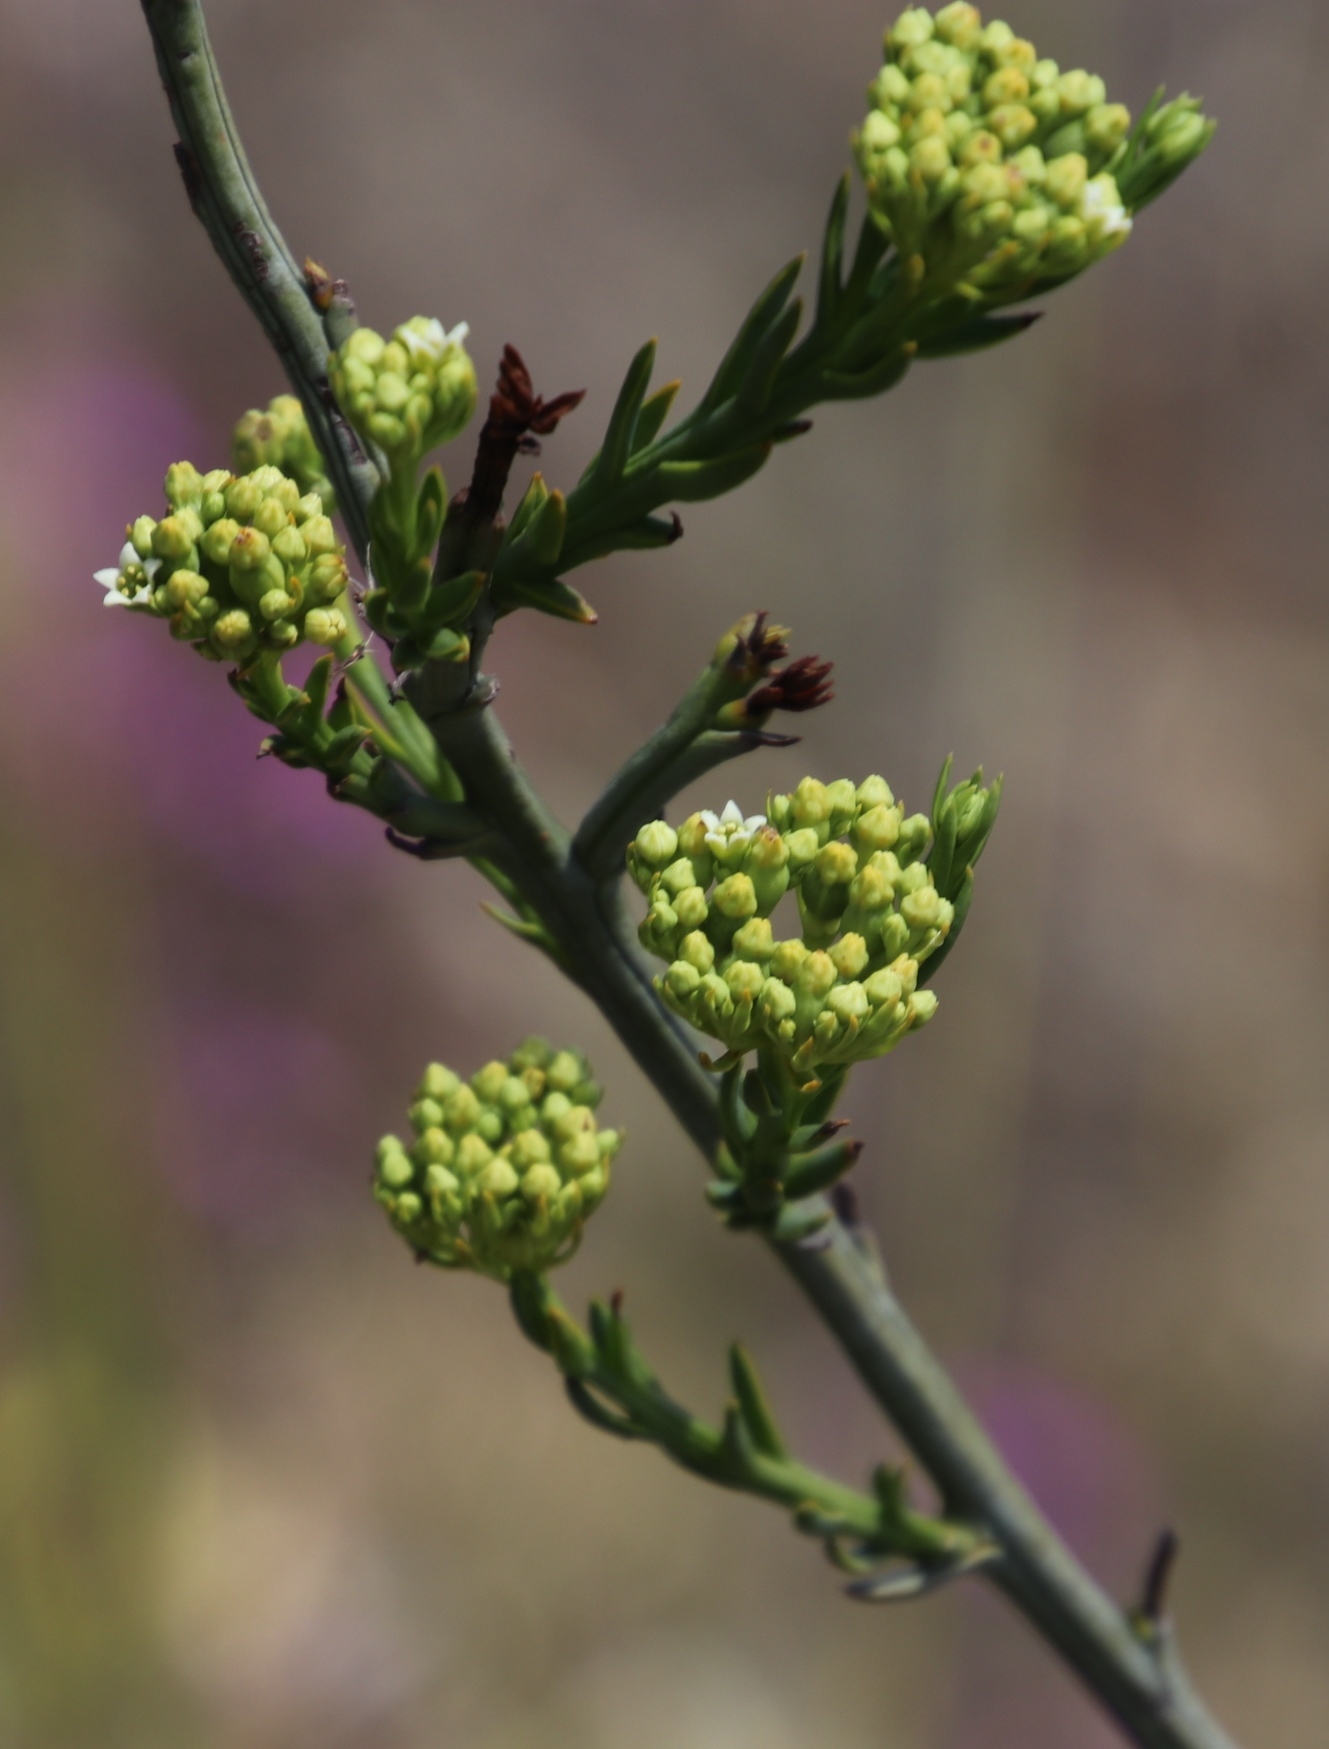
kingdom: Plantae
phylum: Tracheophyta
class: Magnoliopsida
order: Santalales
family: Thesiaceae
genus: Thesium
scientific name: Thesium strictum
